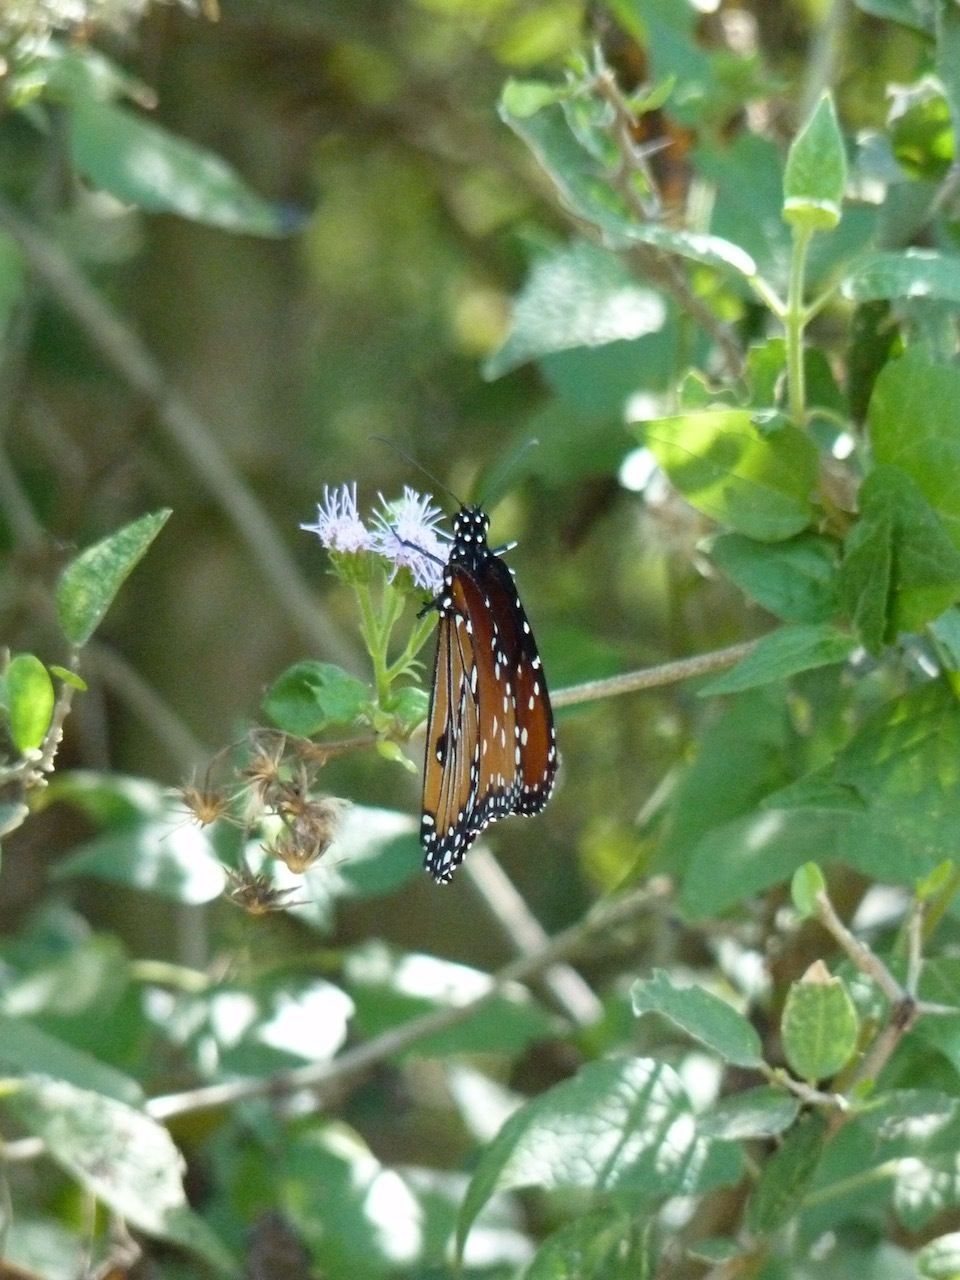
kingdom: Animalia
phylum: Arthropoda
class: Insecta
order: Lepidoptera
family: Nymphalidae
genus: Danaus
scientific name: Danaus gilippus
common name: Queen
